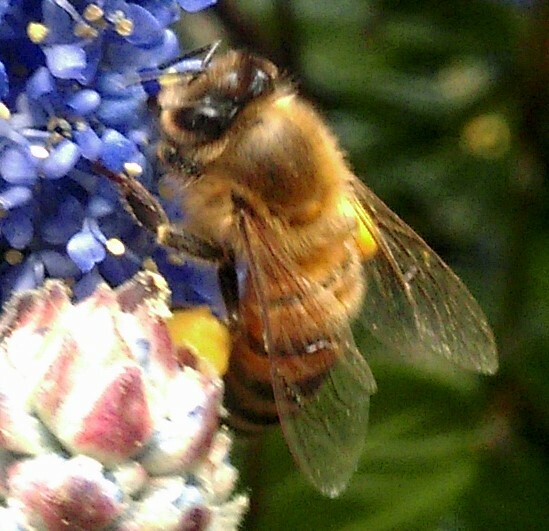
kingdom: Animalia
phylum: Arthropoda
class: Insecta
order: Hymenoptera
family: Apidae
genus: Apis
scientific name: Apis mellifera
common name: Honey bee
